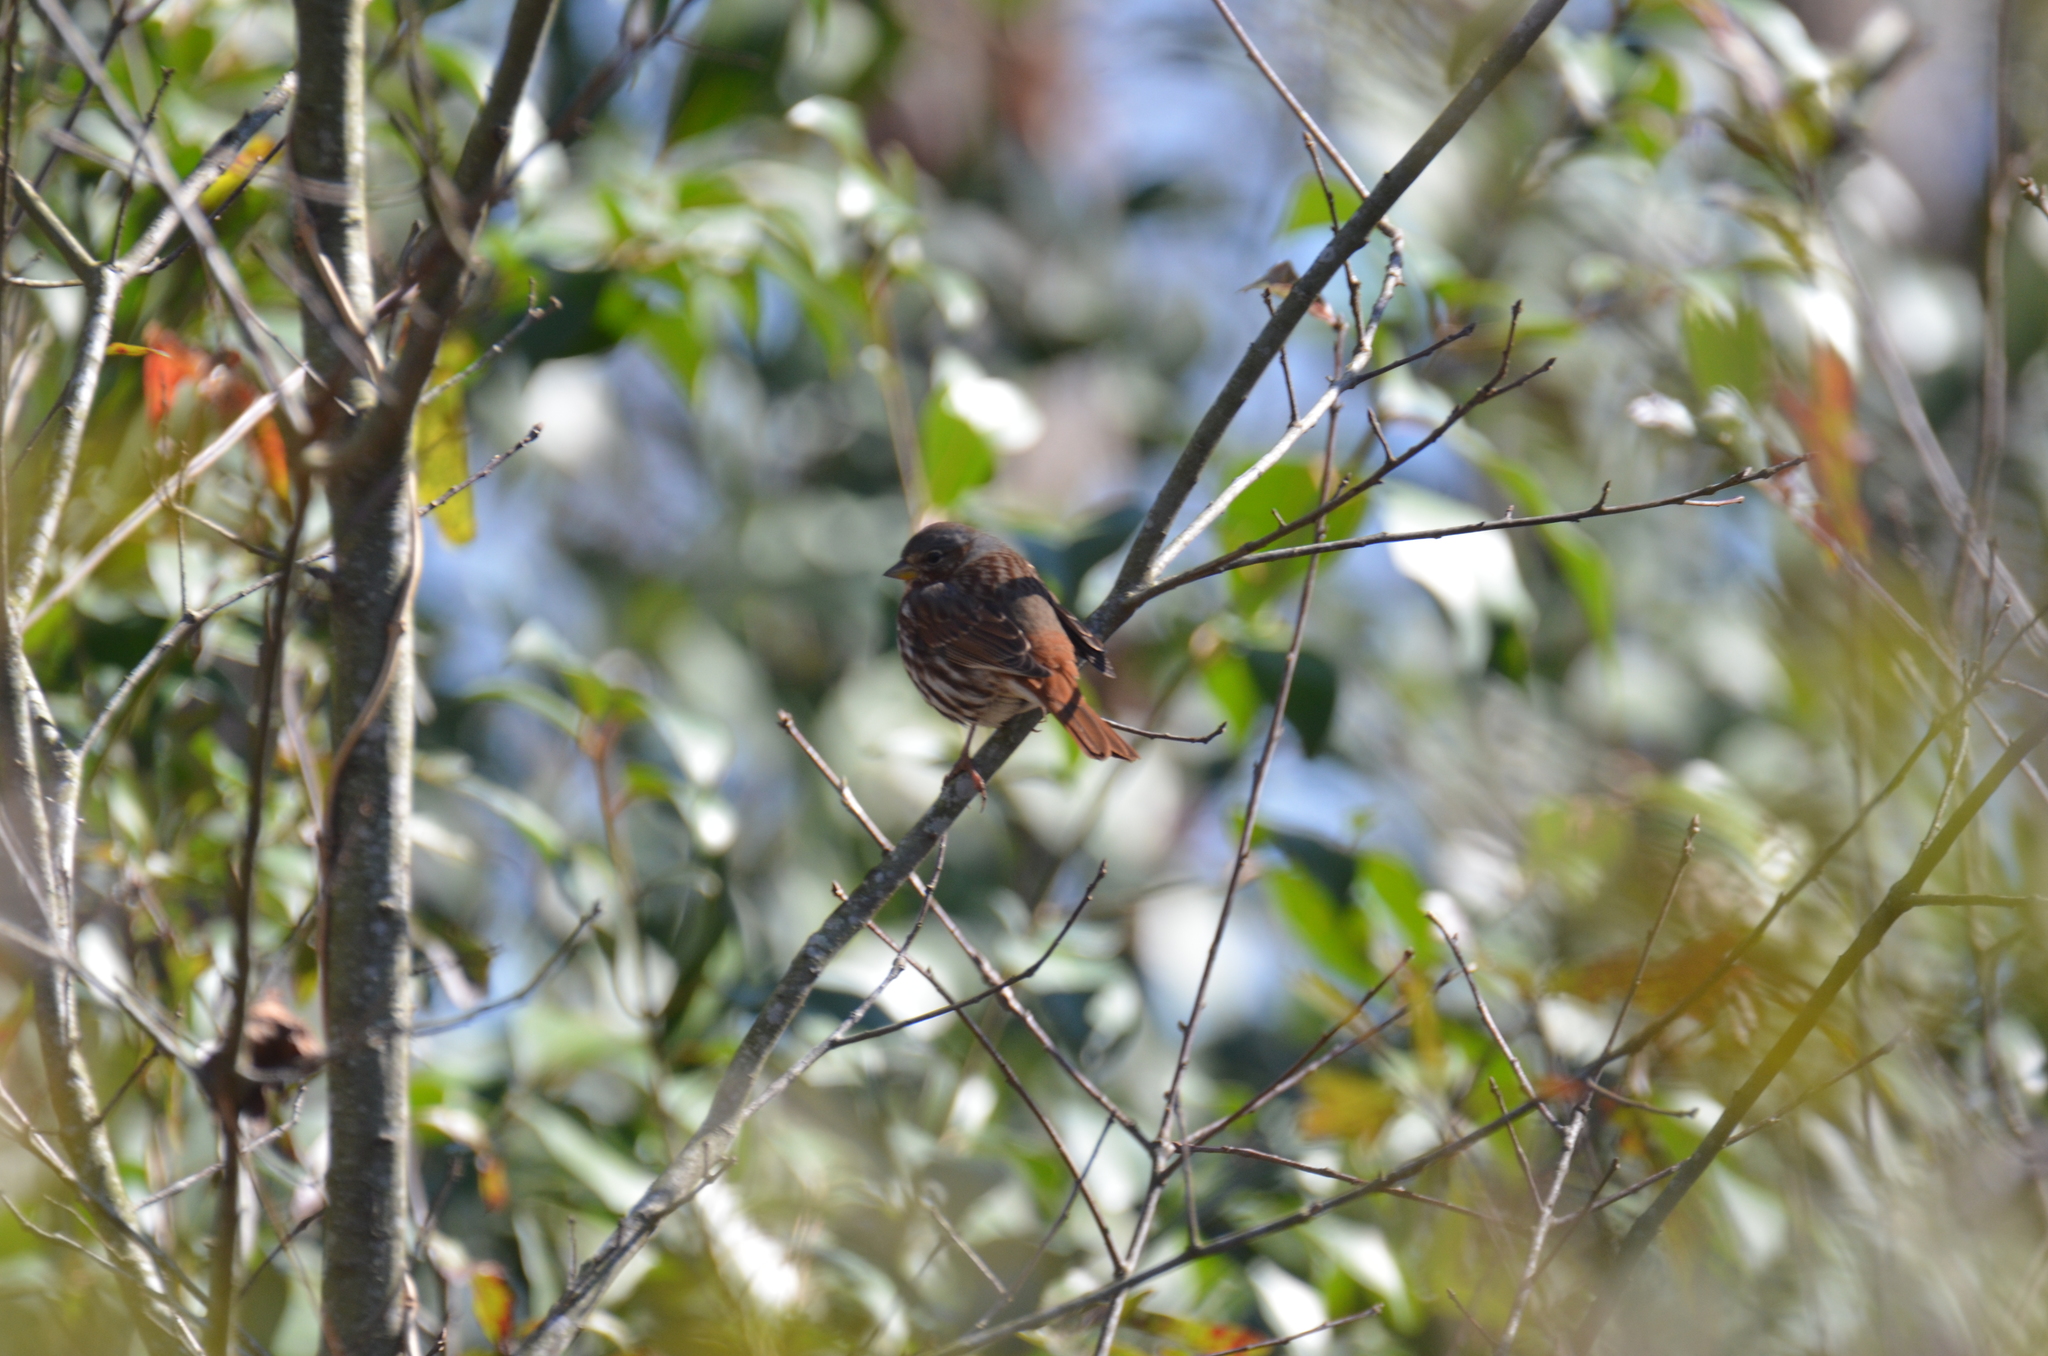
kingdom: Animalia
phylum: Chordata
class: Aves
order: Passeriformes
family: Passerellidae
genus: Passerella
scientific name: Passerella iliaca
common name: Fox sparrow
